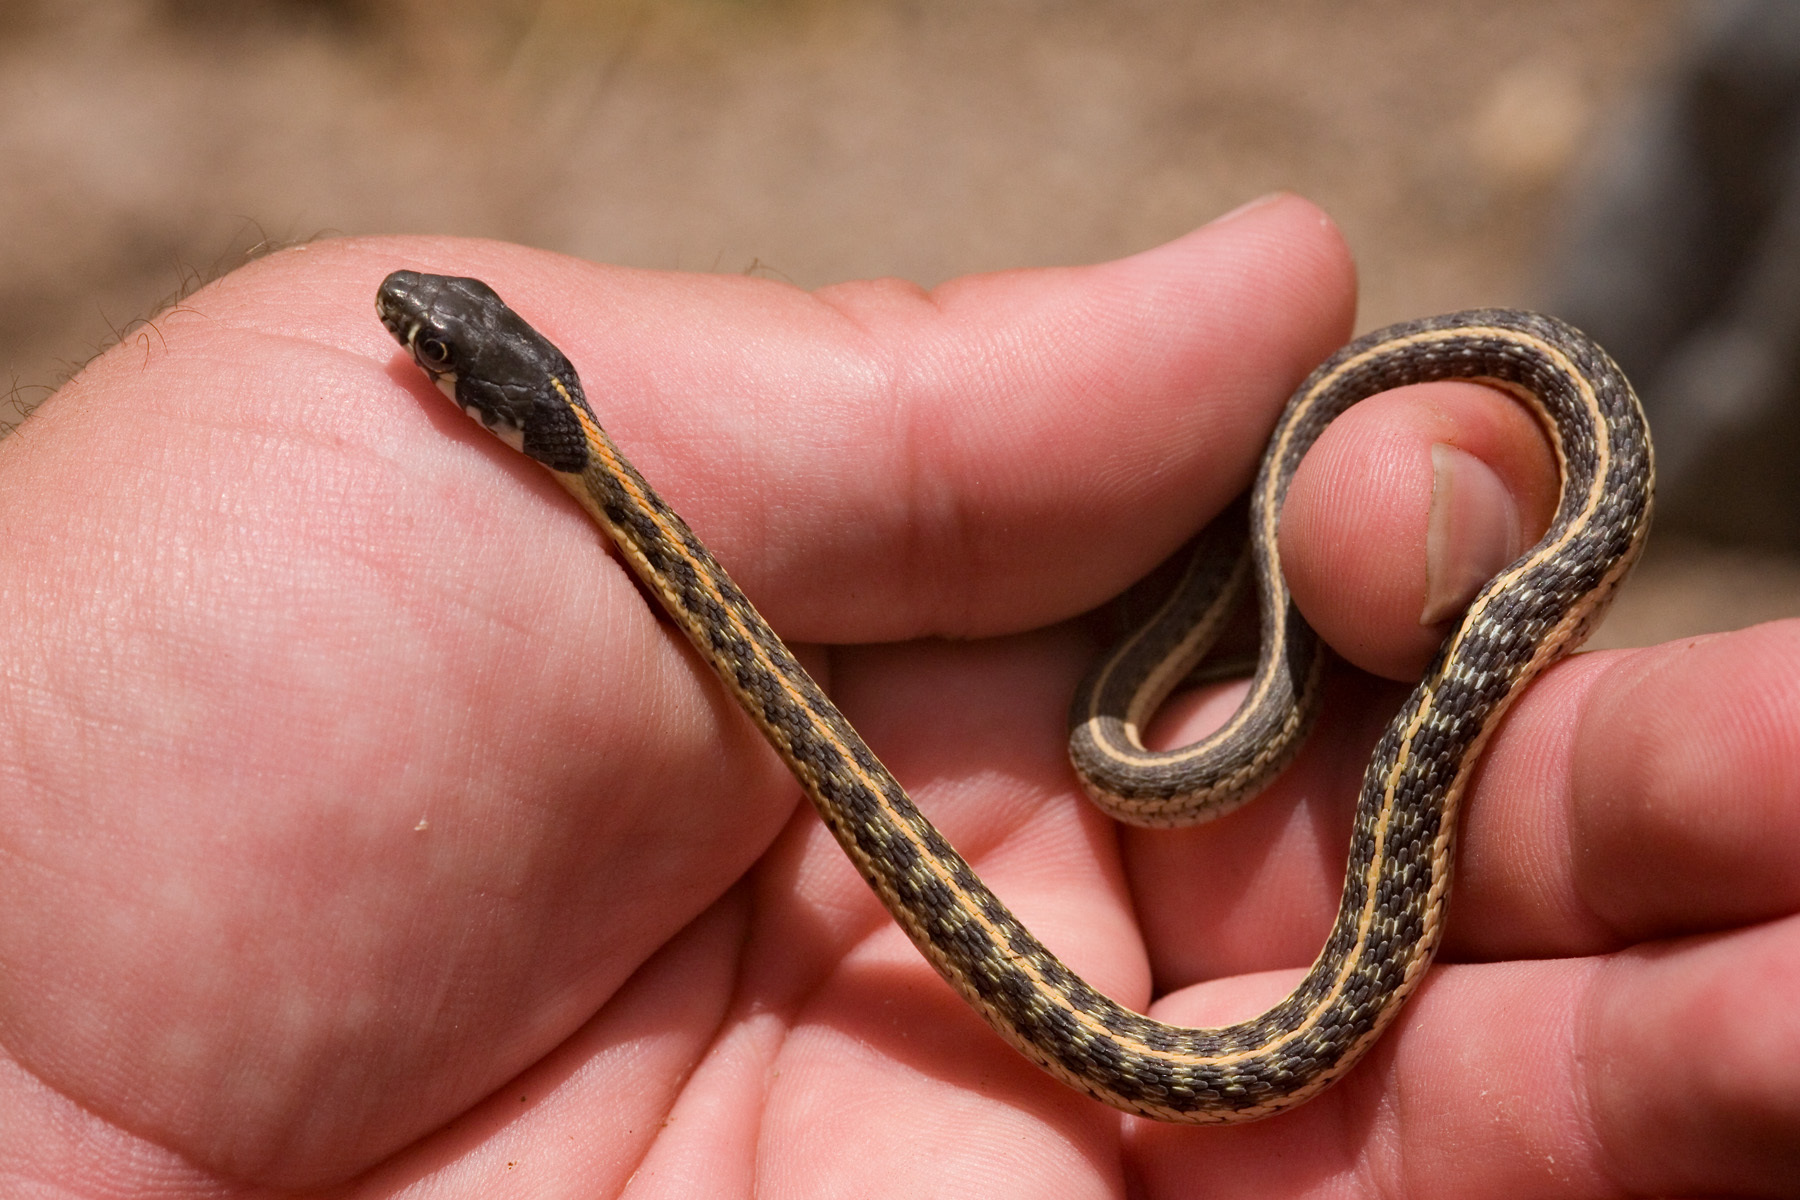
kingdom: Animalia
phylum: Chordata
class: Squamata
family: Colubridae
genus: Thamnophis
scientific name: Thamnophis cyrtopsis
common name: Black-necked gartersnake
